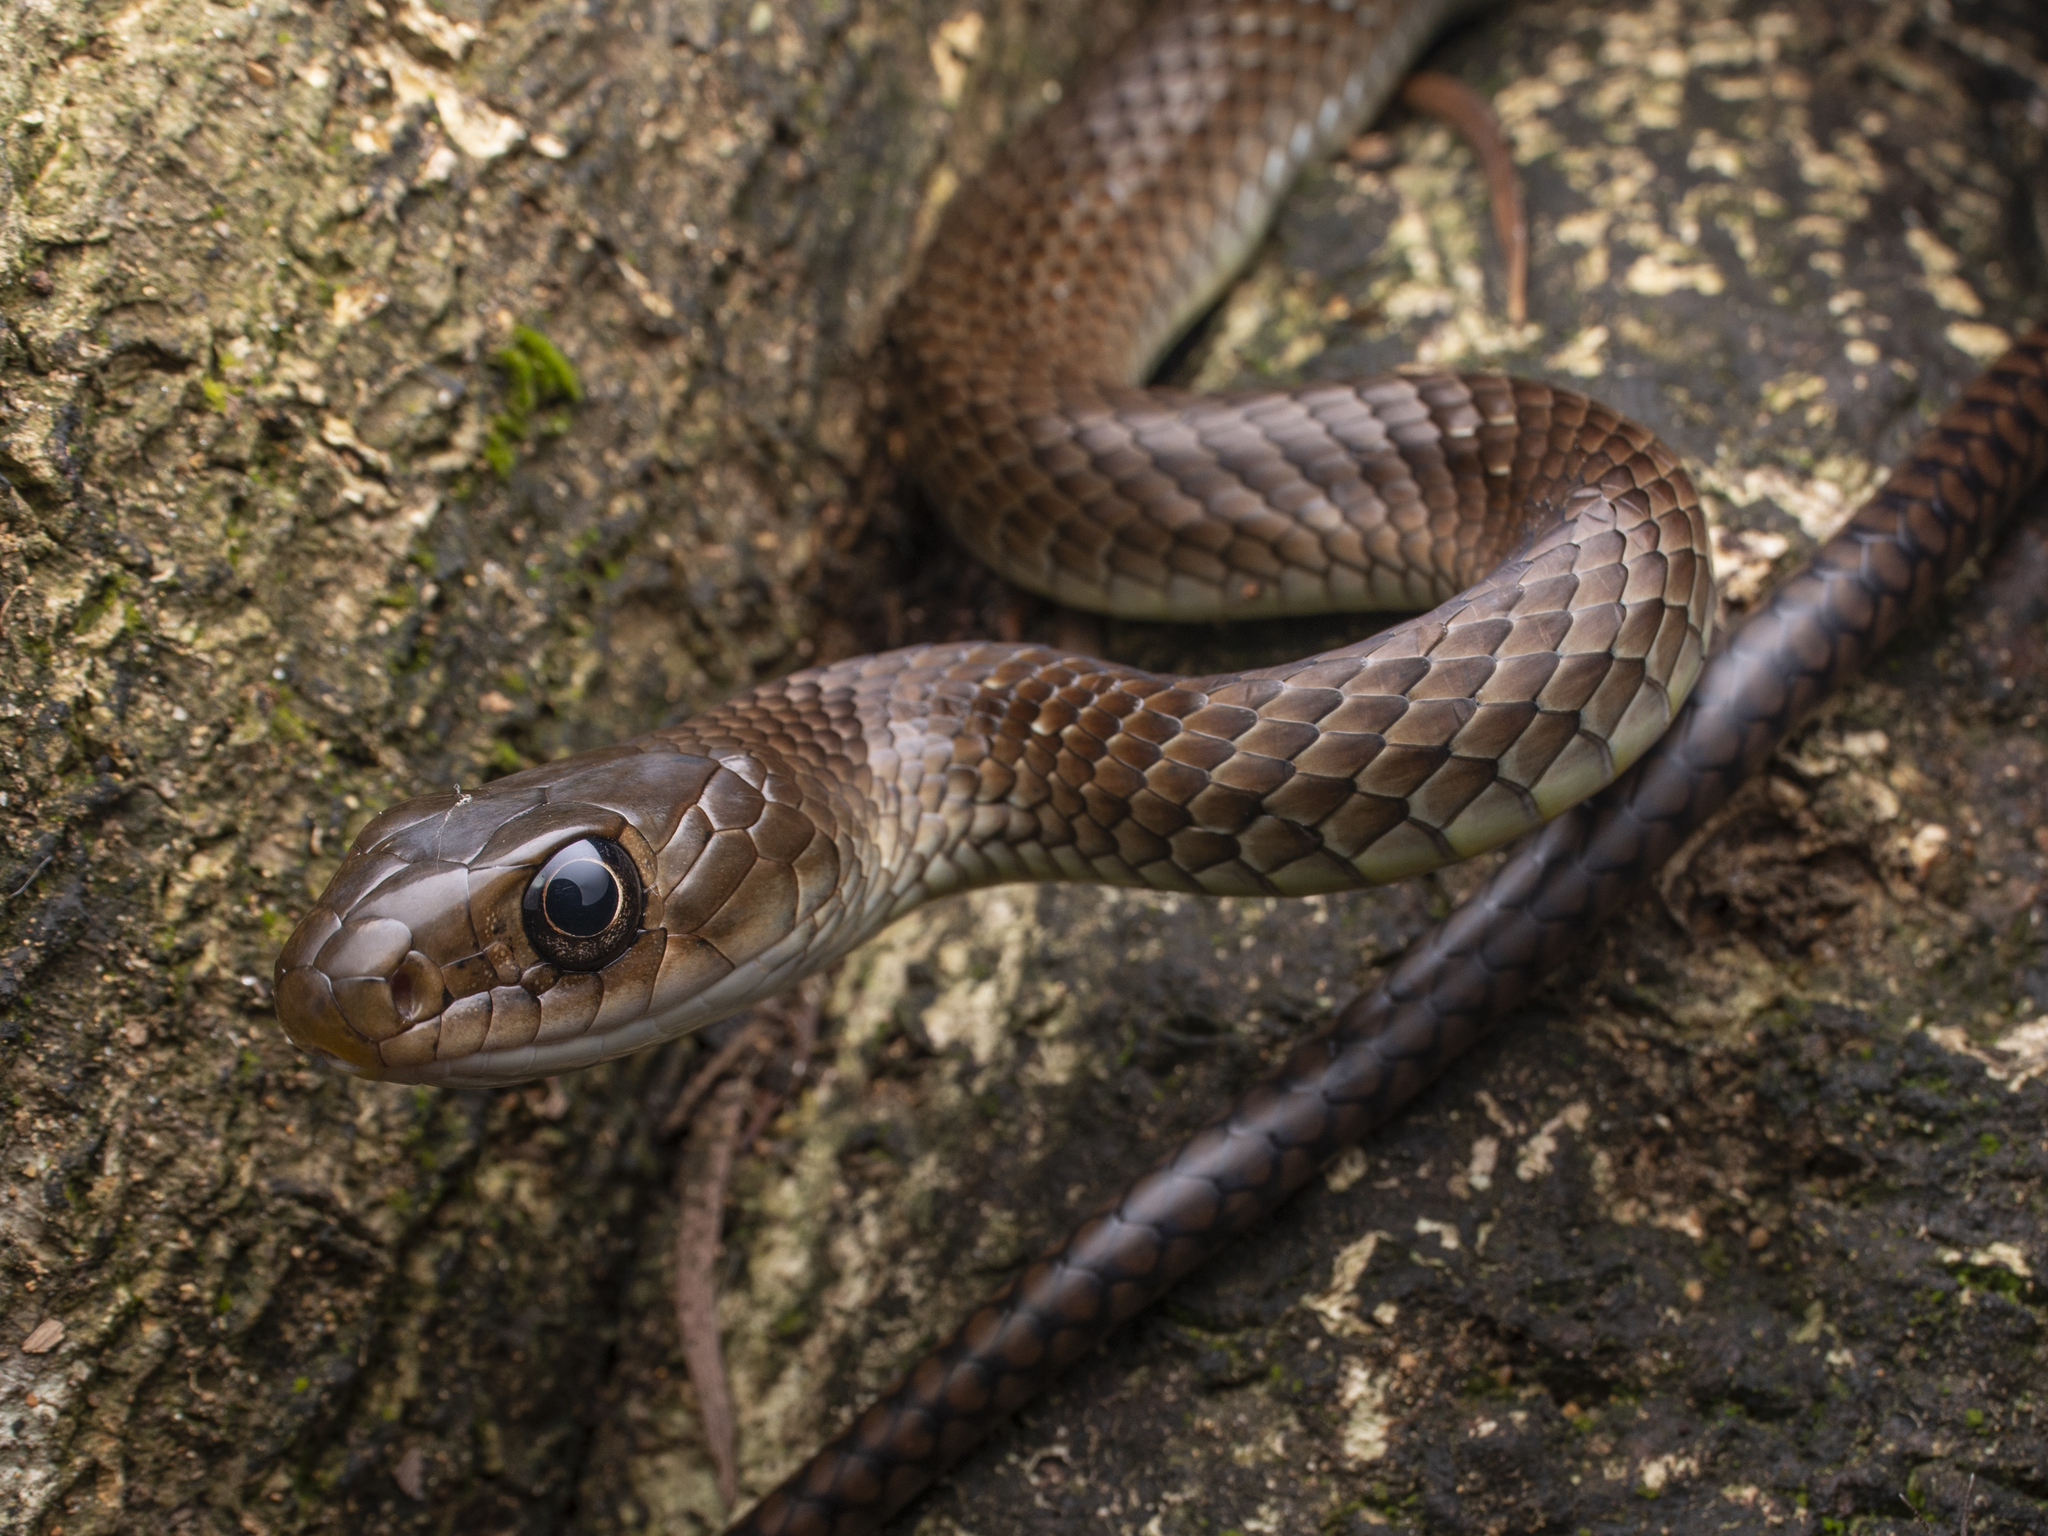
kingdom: Animalia
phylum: Chordata
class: Squamata
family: Colubridae
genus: Ptyas
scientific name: Ptyas korros
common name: Indo-chinese rat snake
